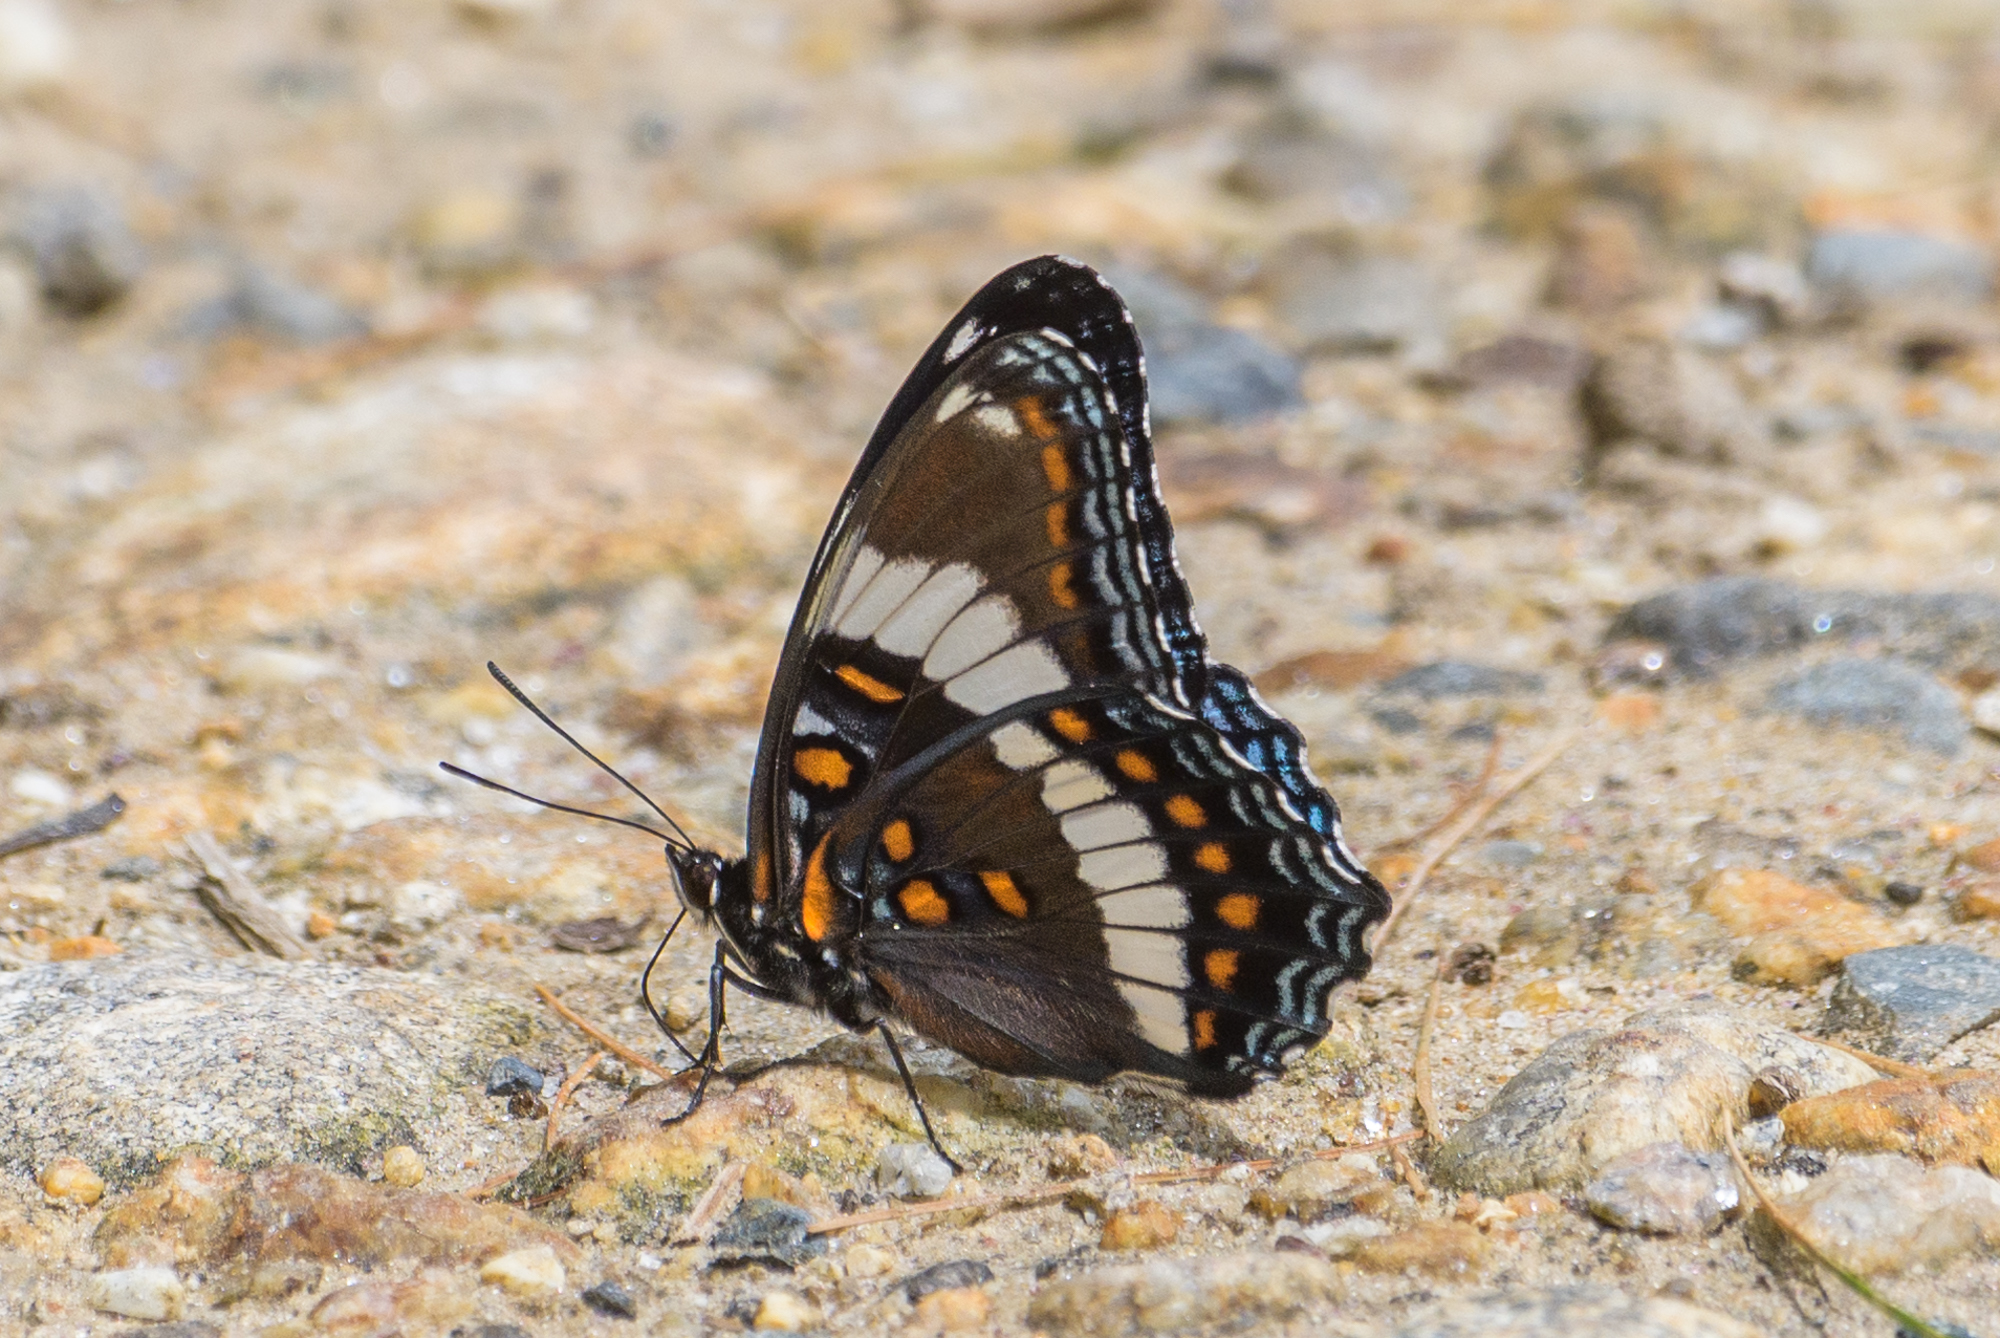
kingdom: Animalia
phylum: Arthropoda
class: Insecta
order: Lepidoptera
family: Nymphalidae
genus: Limenitis
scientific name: Limenitis arthemis
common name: Red-spotted admiral
